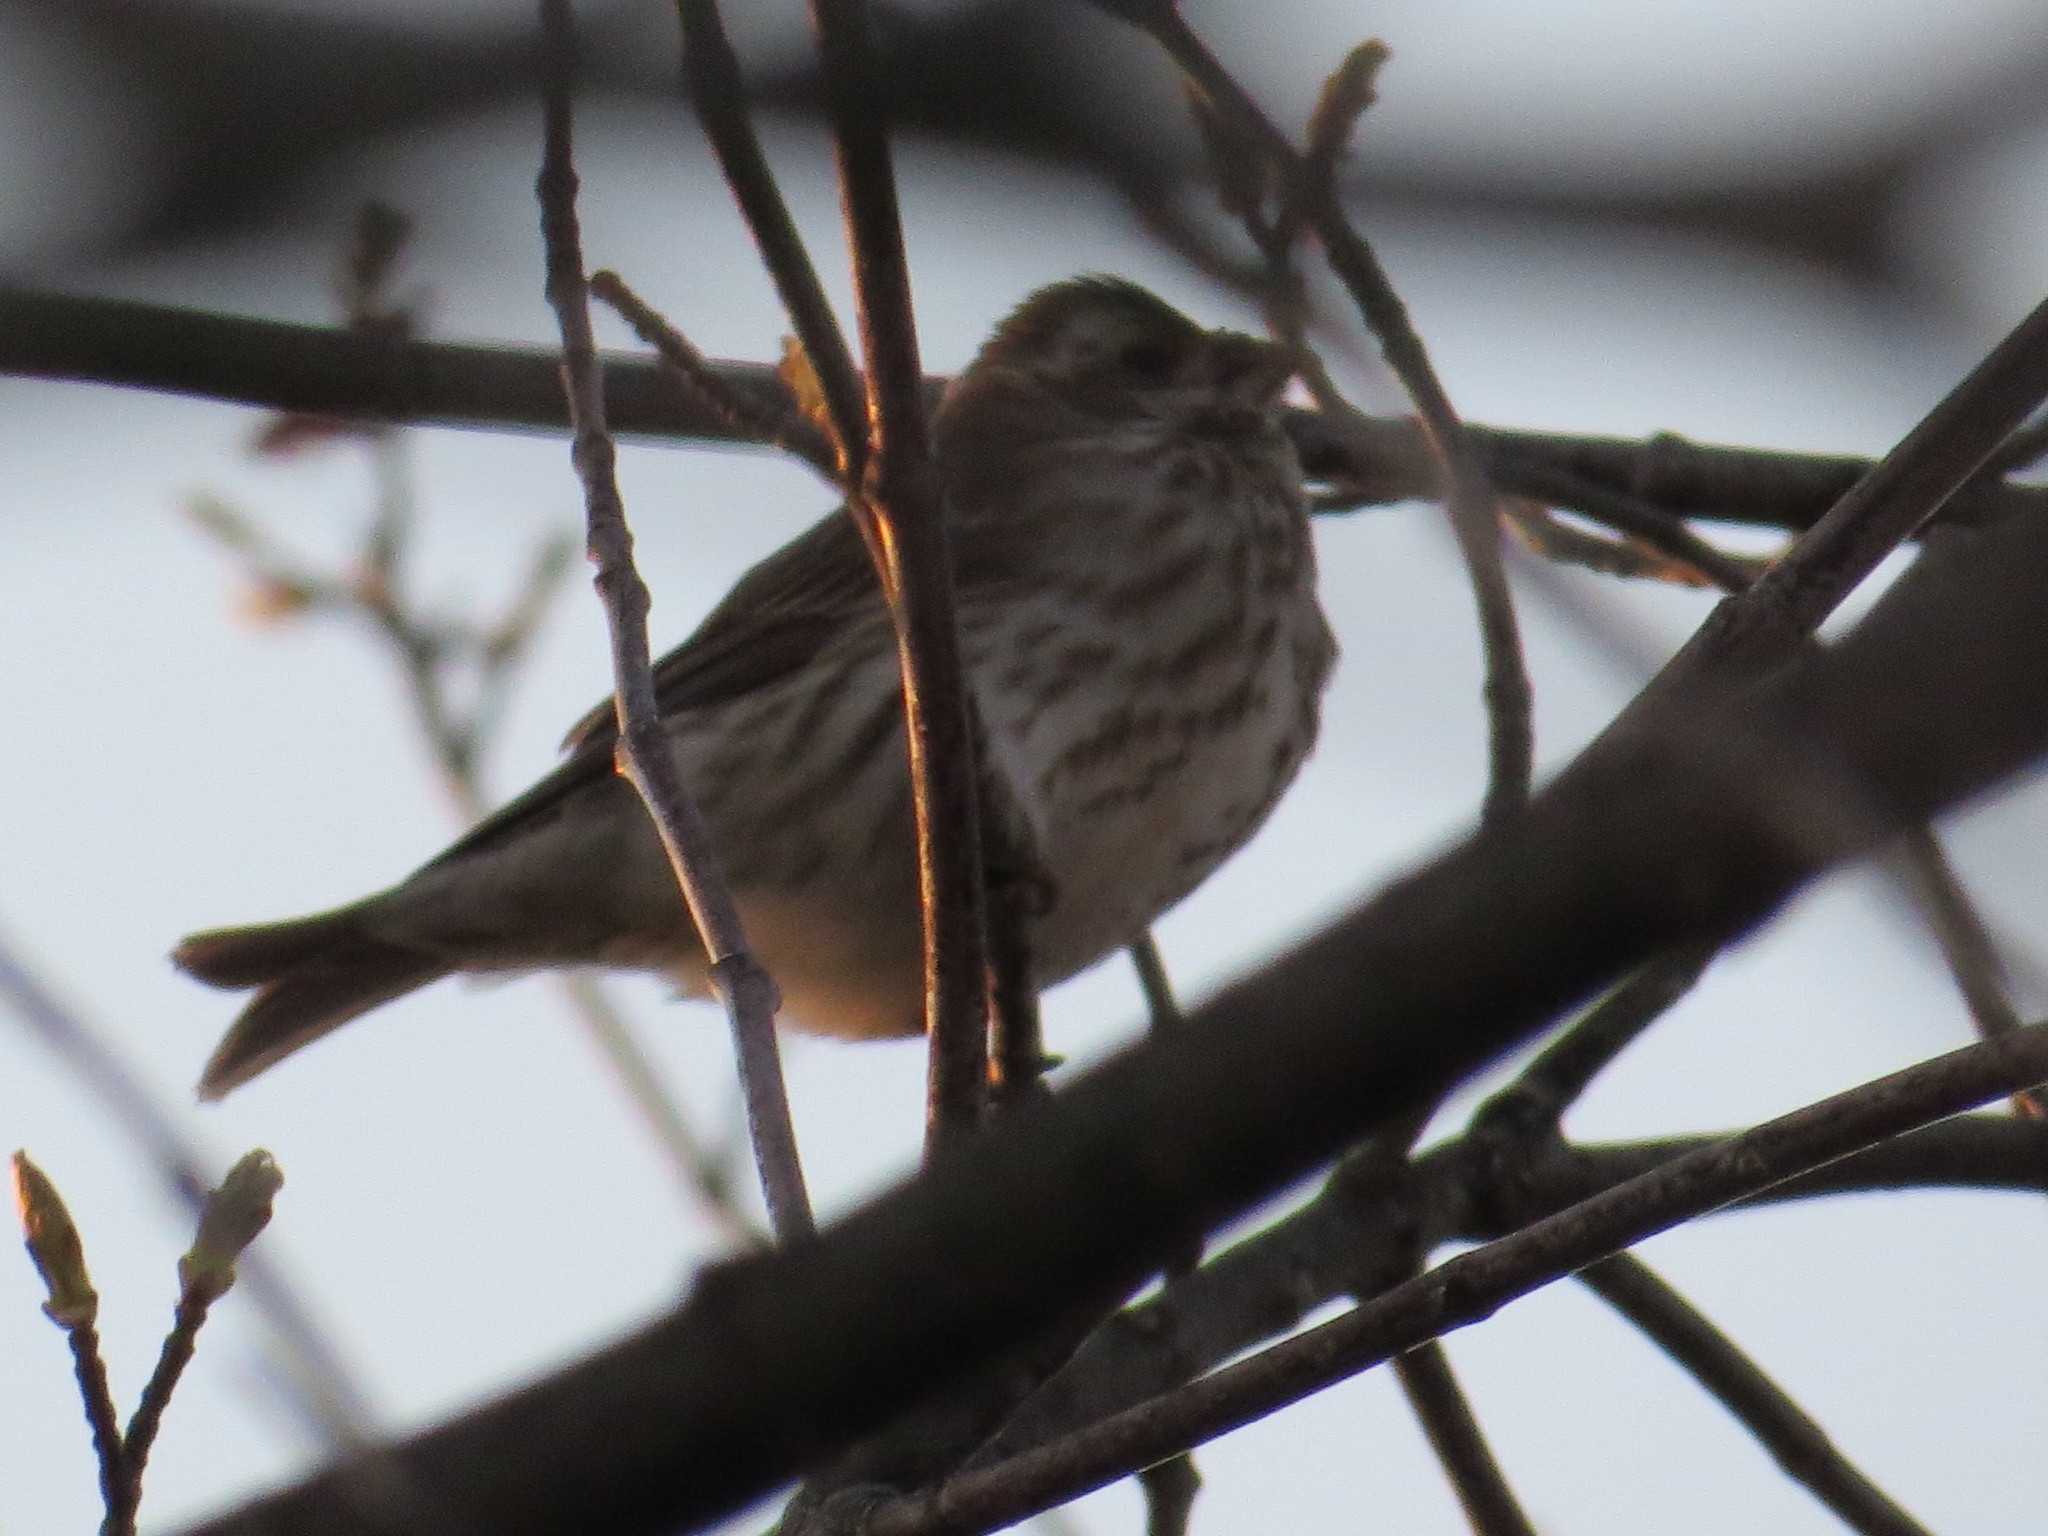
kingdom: Animalia
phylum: Chordata
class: Aves
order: Passeriformes
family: Fringillidae
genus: Haemorhous
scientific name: Haemorhous purpureus
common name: Purple finch
